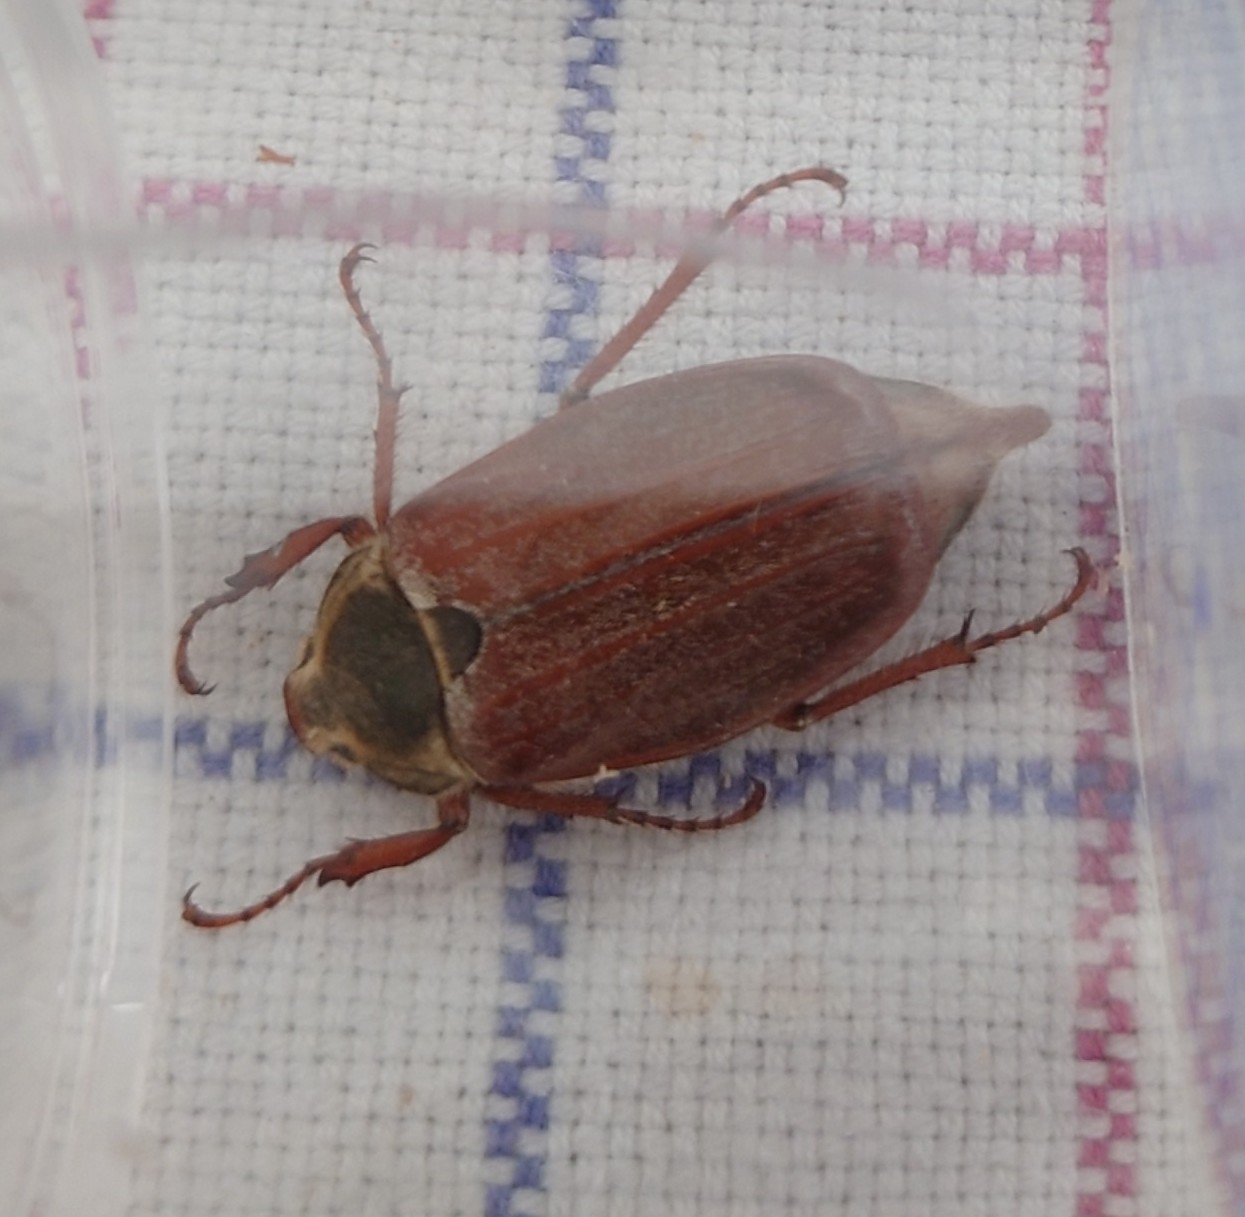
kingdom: Animalia
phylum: Arthropoda
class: Insecta
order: Coleoptera
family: Scarabaeidae
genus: Melolontha
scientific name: Melolontha melolontha
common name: Cockchafer maybeetle
